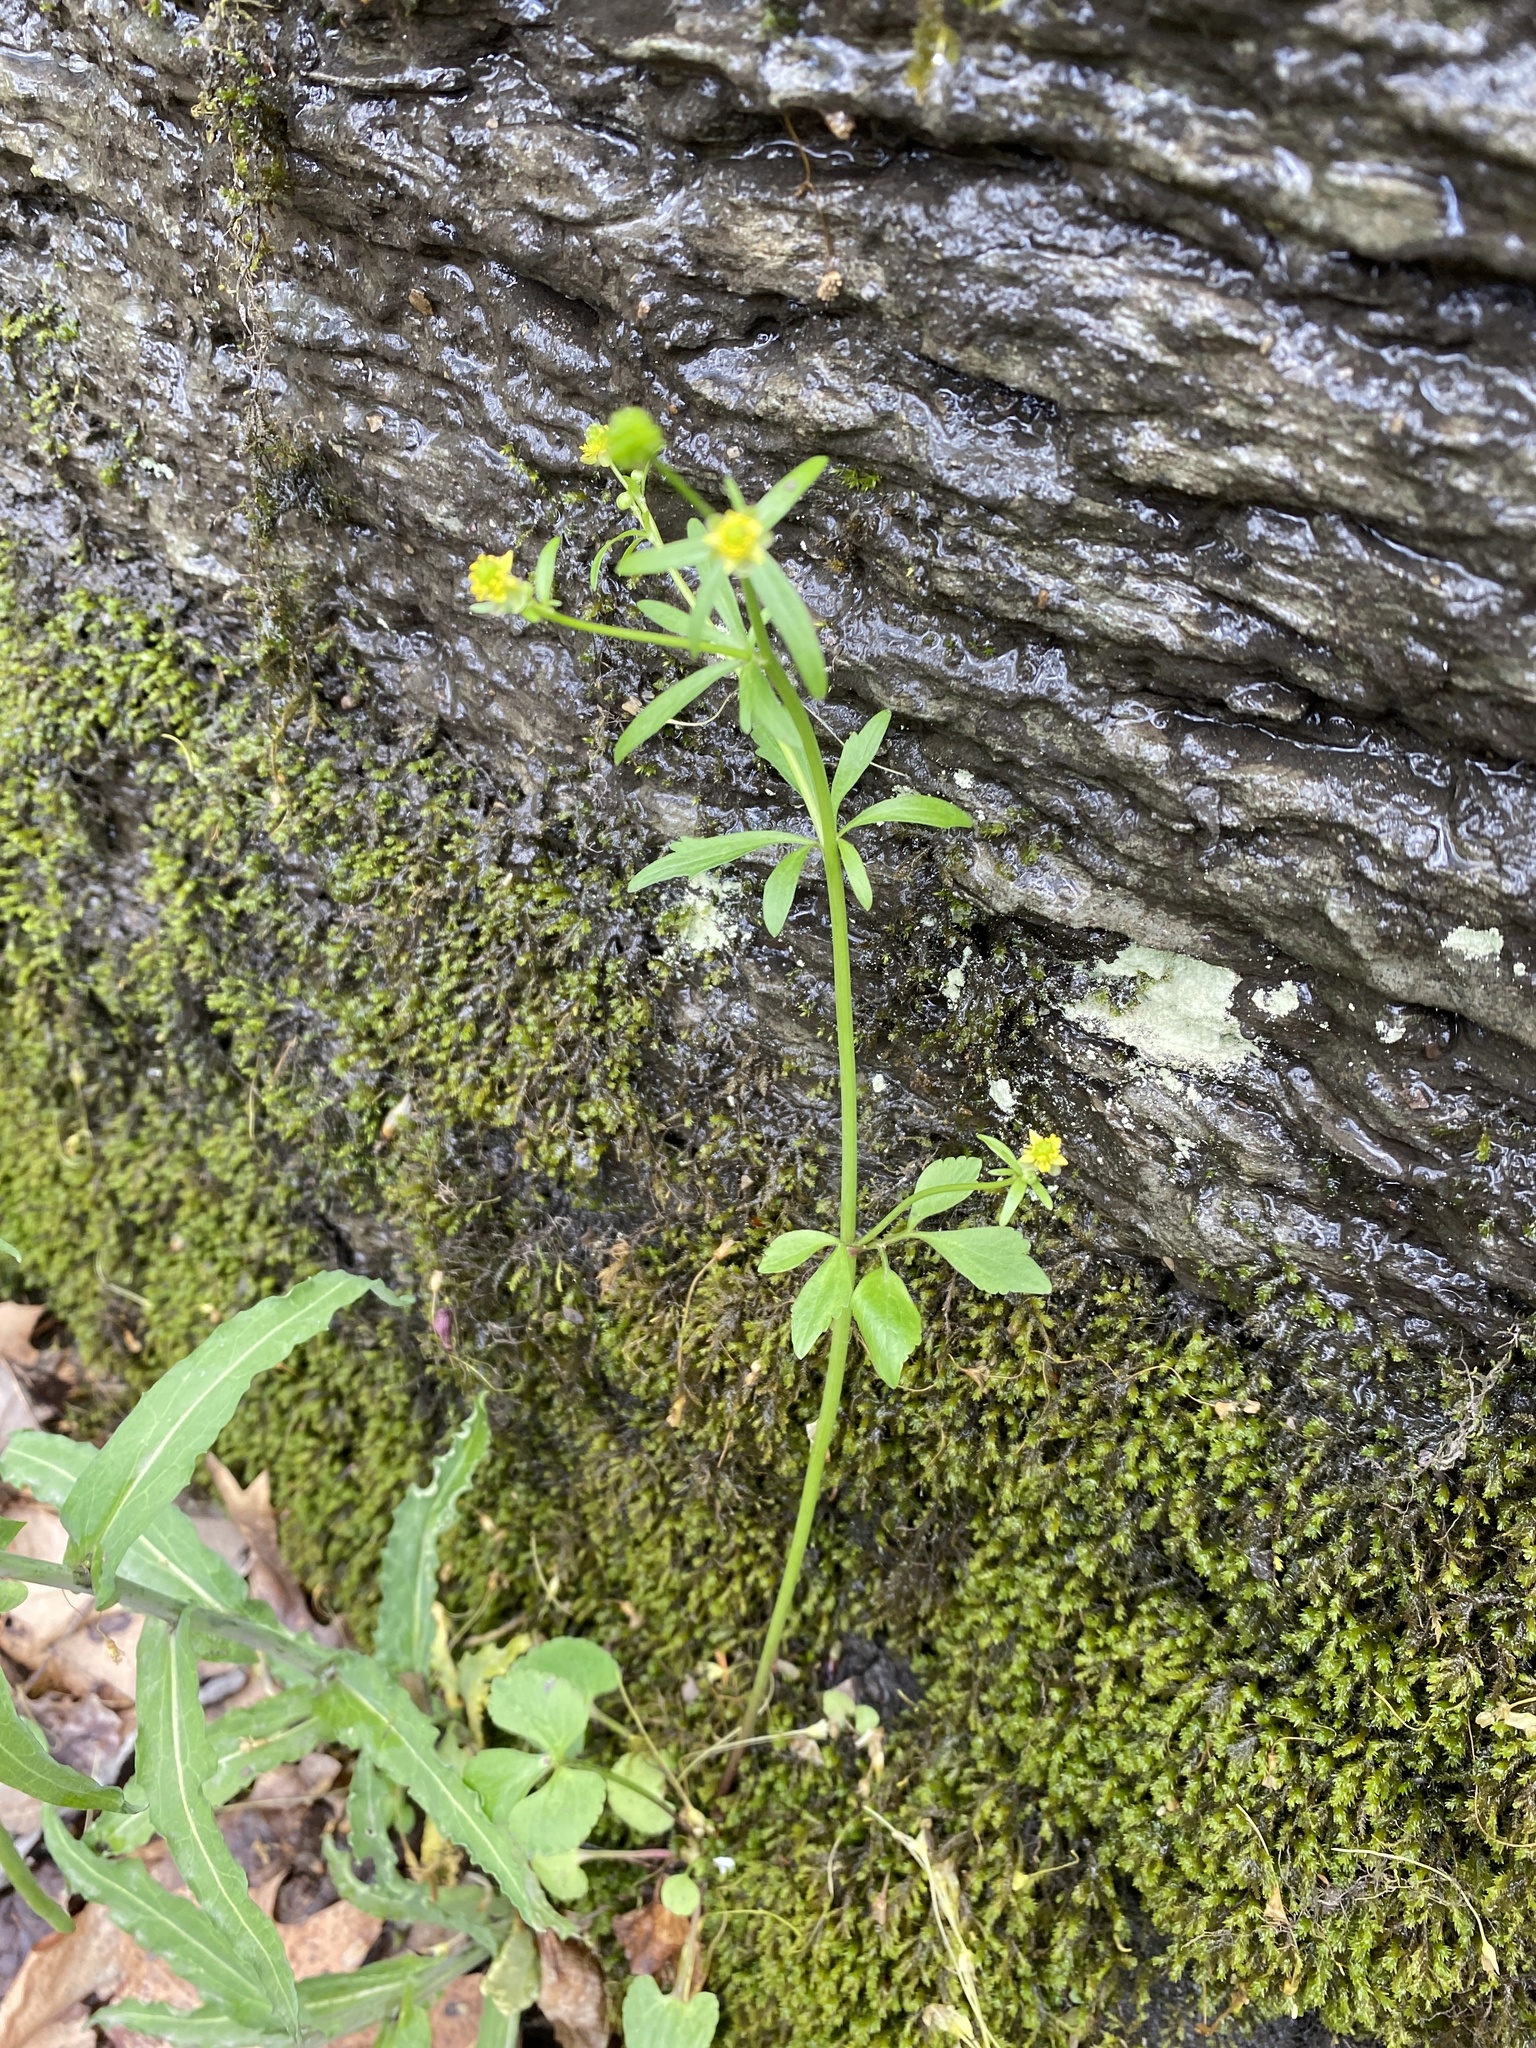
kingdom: Plantae
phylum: Tracheophyta
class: Magnoliopsida
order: Ranunculales
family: Ranunculaceae
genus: Ranunculus
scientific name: Ranunculus abortivus
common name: Early wood buttercup
